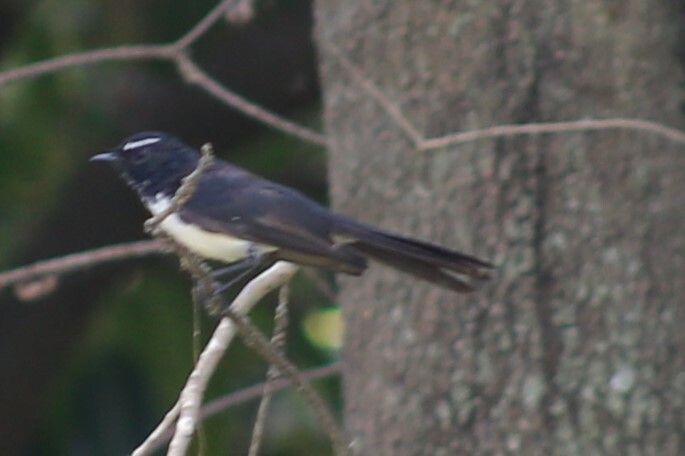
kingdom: Animalia
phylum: Chordata
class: Aves
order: Passeriformes
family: Rhipiduridae
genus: Rhipidura
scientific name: Rhipidura leucophrys
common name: Willie wagtail
